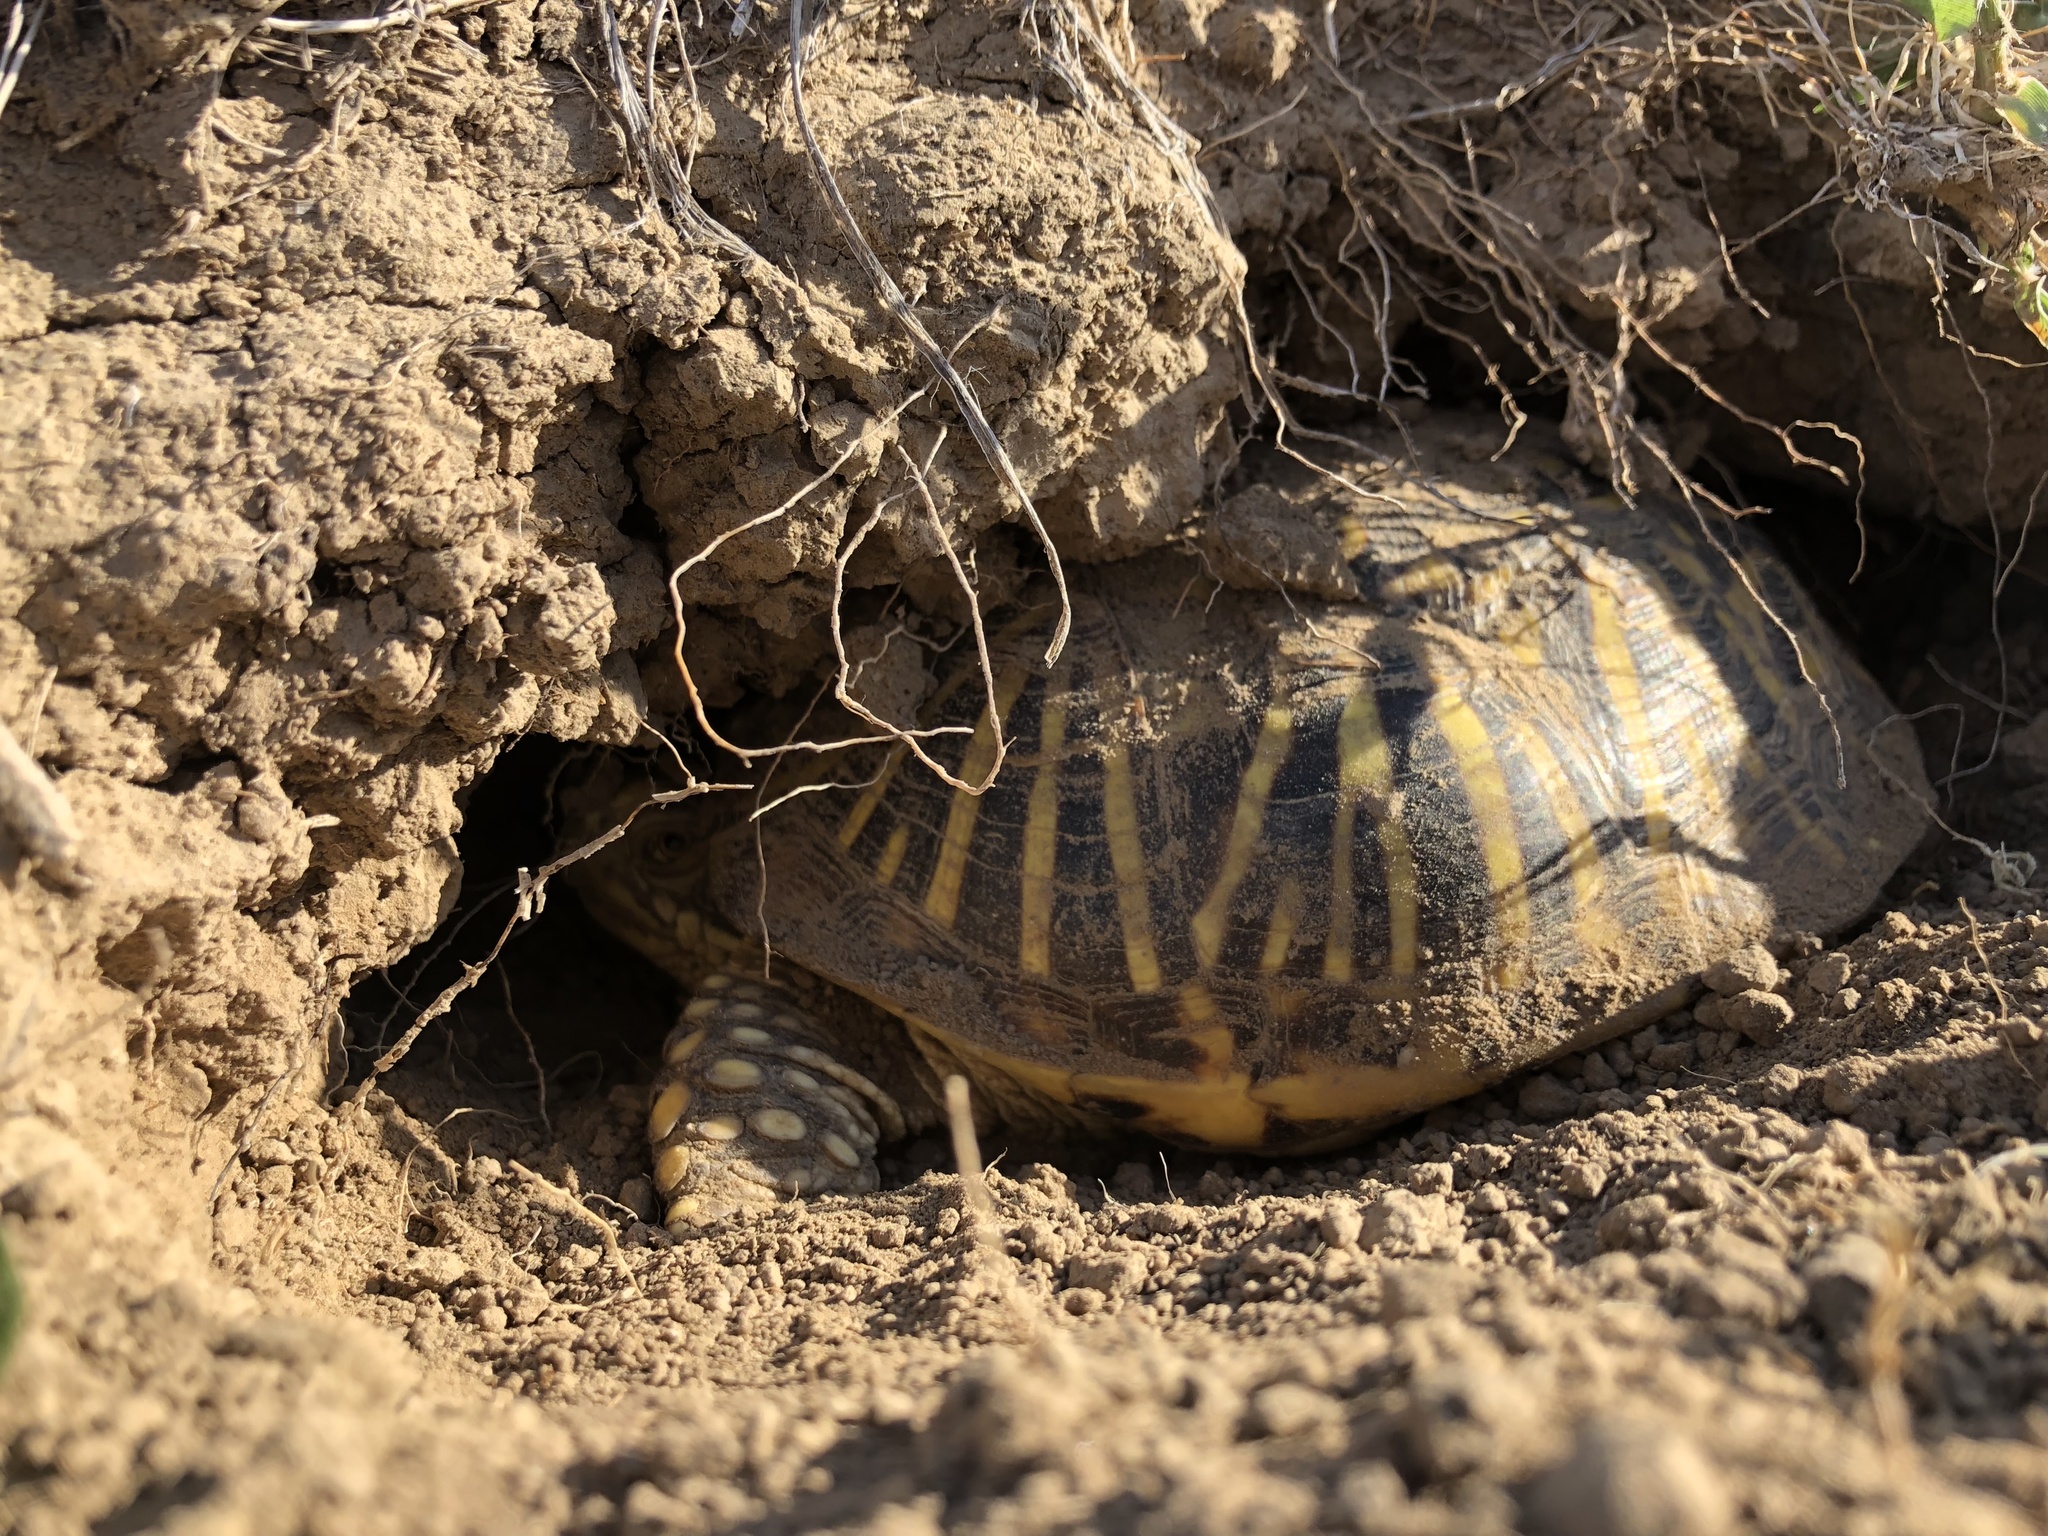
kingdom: Animalia
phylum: Chordata
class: Testudines
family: Emydidae
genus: Terrapene
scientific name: Terrapene ornata
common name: Western box turtle
